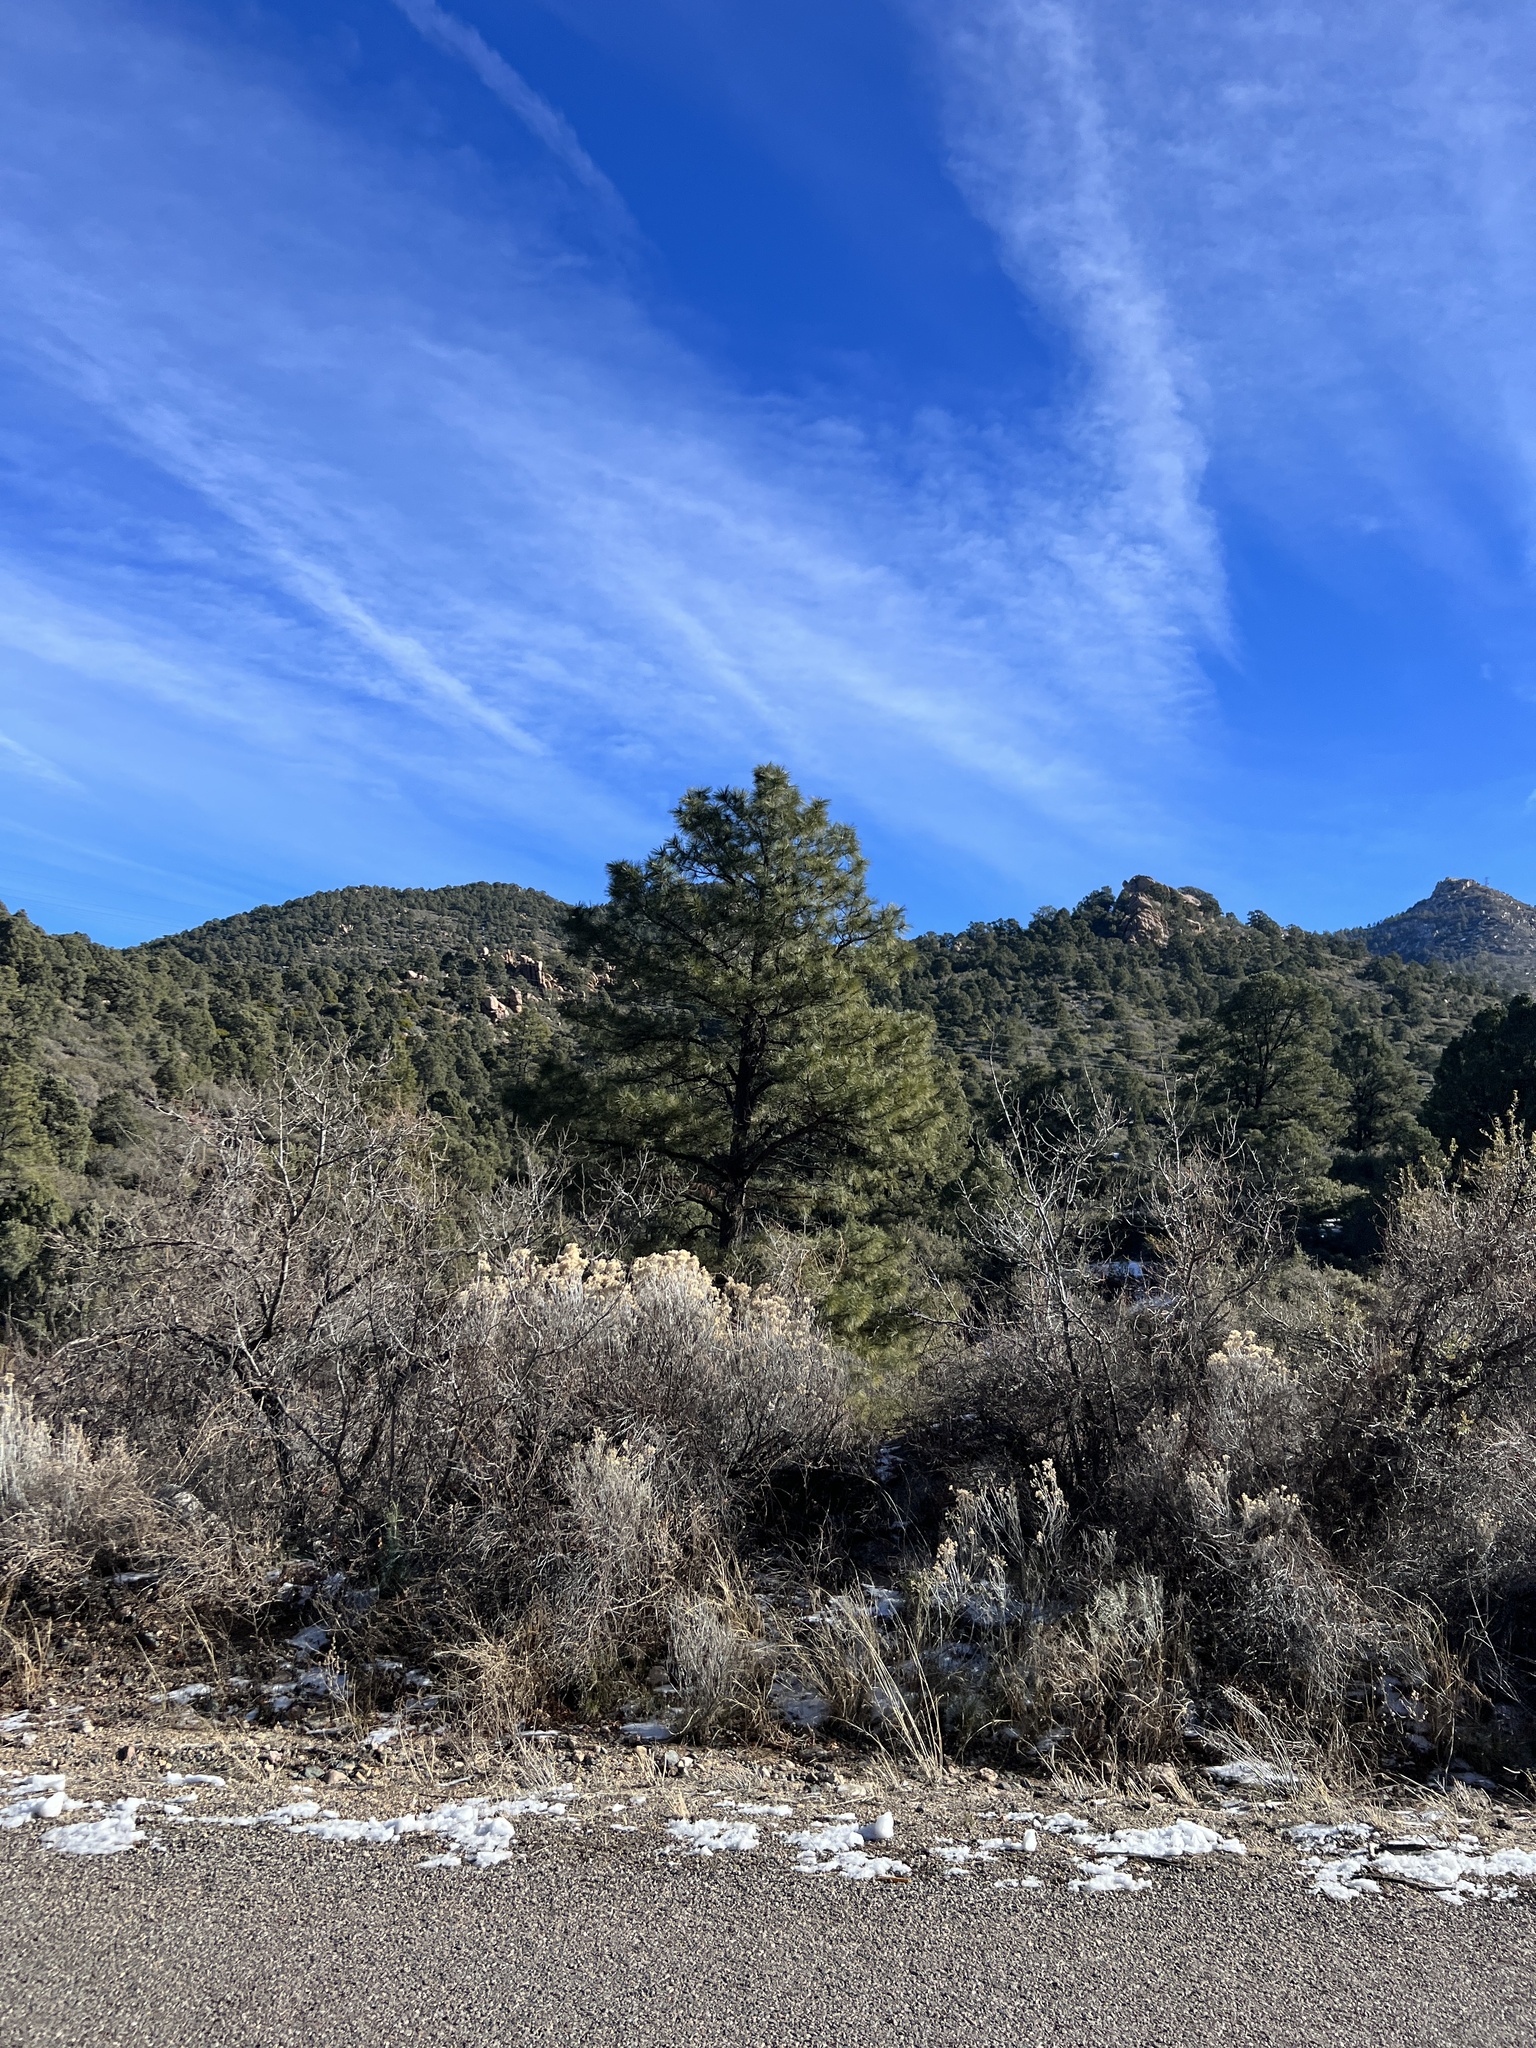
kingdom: Plantae
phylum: Tracheophyta
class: Pinopsida
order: Pinales
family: Pinaceae
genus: Pinus
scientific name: Pinus ponderosa
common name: Western yellow-pine
